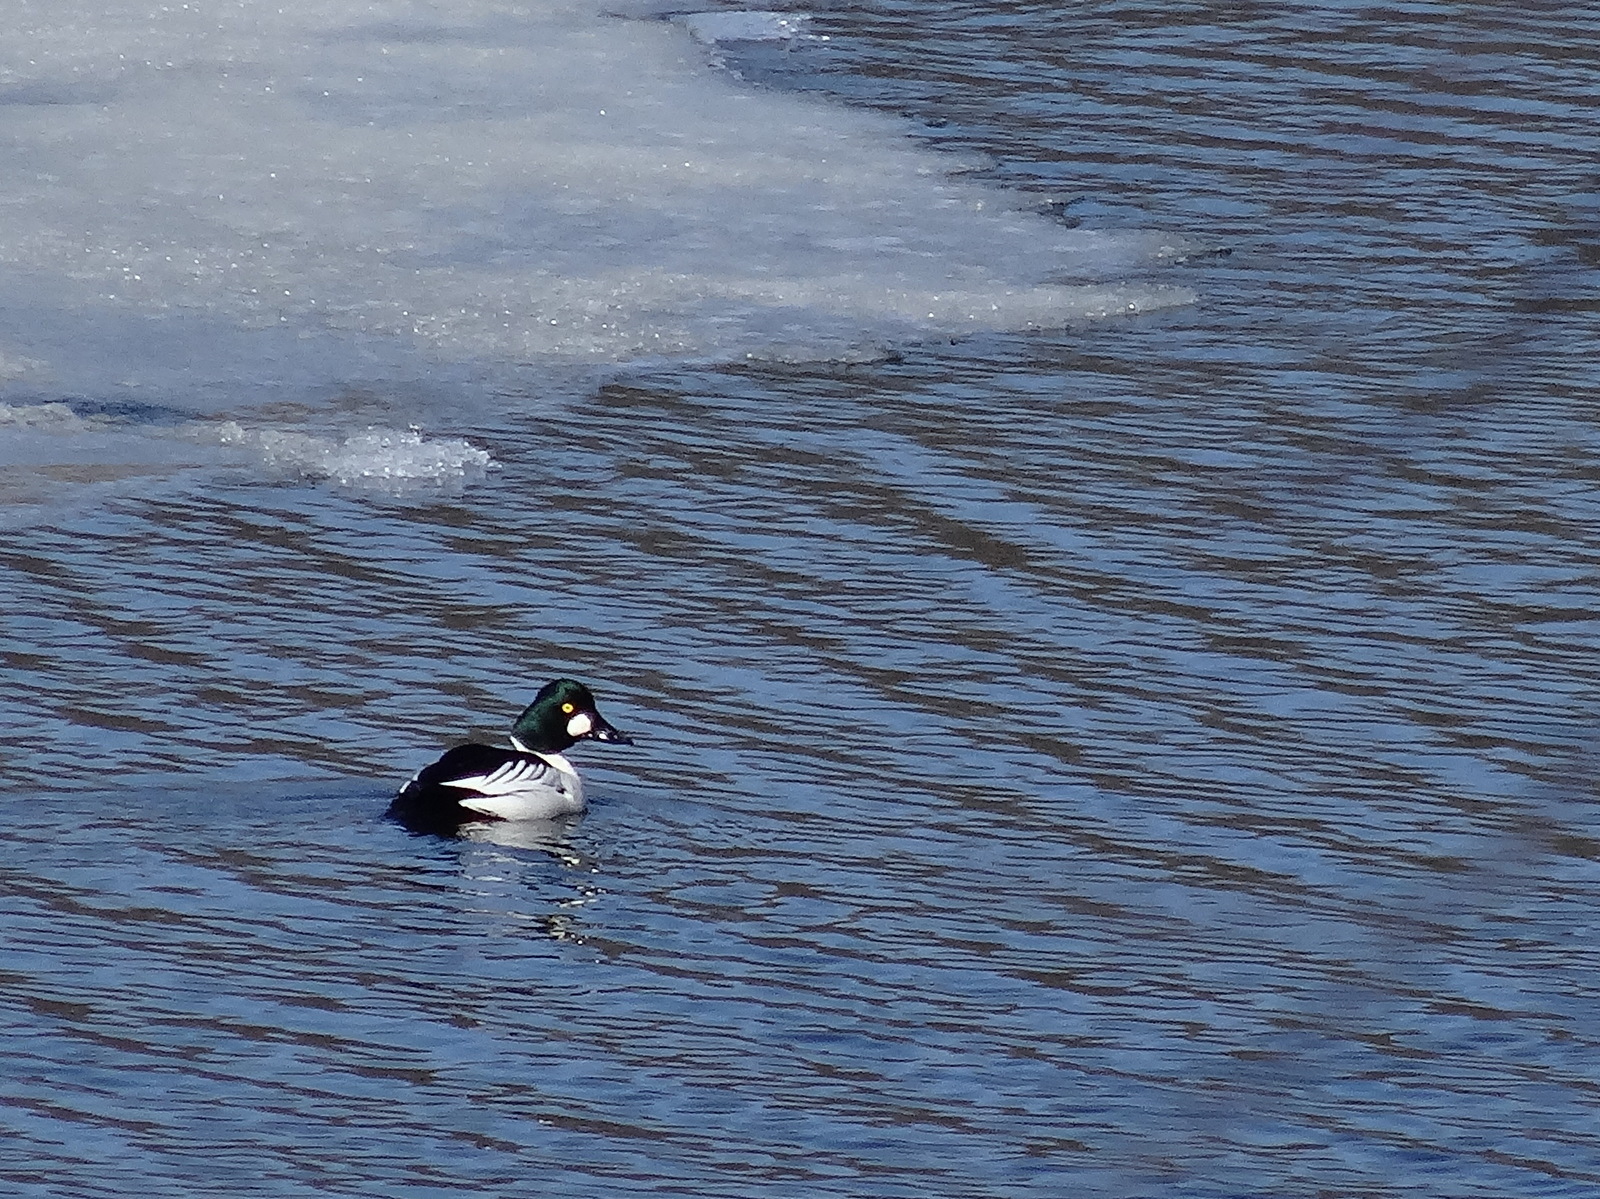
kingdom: Animalia
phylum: Chordata
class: Aves
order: Anseriformes
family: Anatidae
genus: Bucephala
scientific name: Bucephala clangula
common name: Common goldeneye
